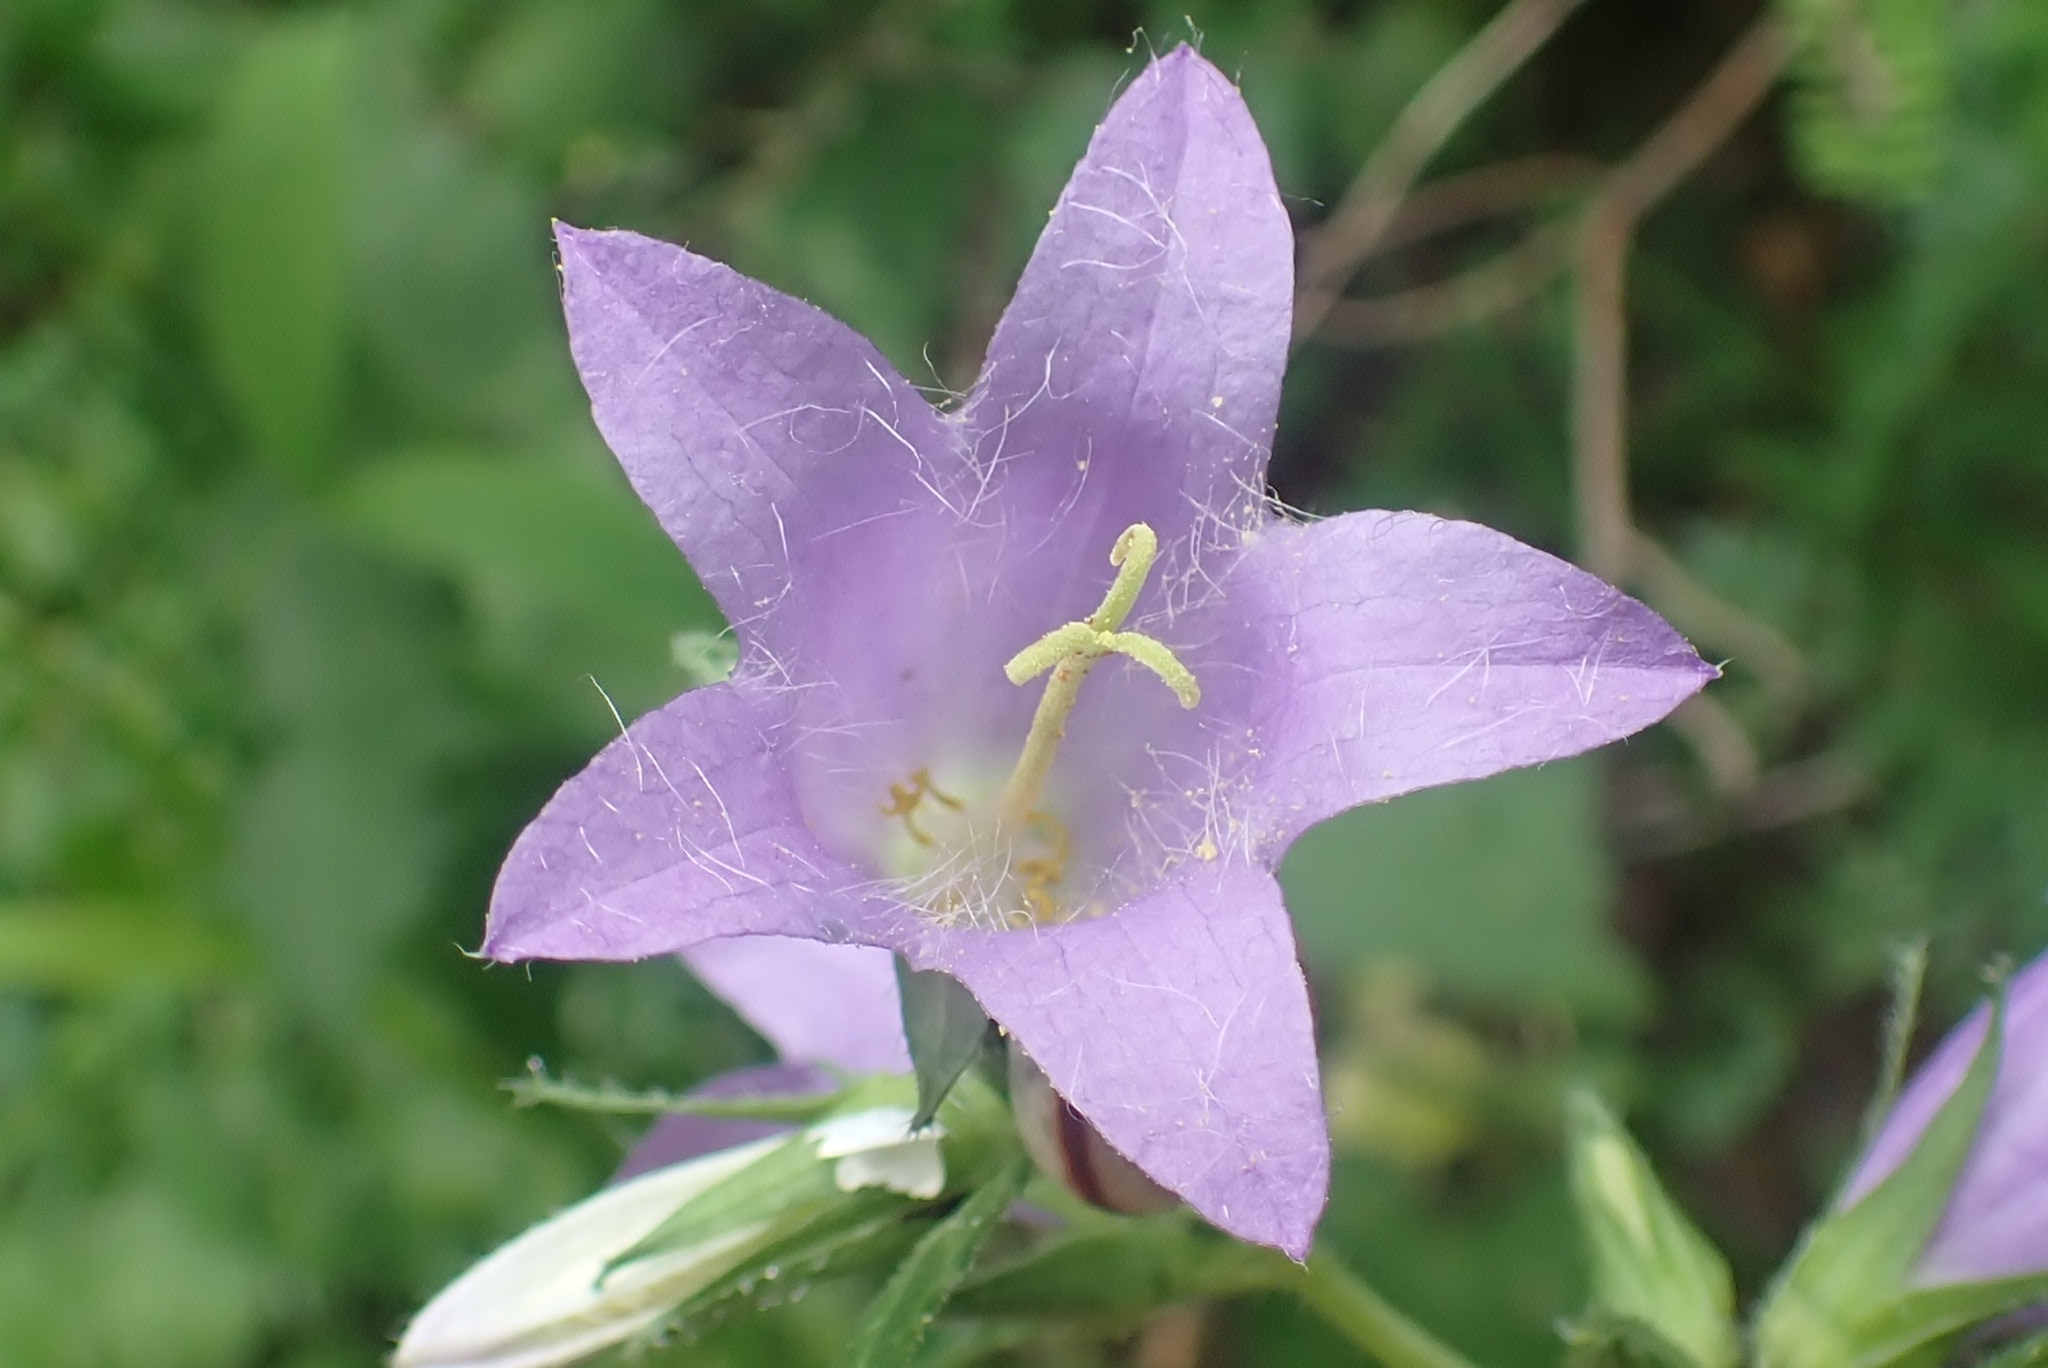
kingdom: Plantae
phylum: Tracheophyta
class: Magnoliopsida
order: Asterales
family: Campanulaceae
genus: Campanula
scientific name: Campanula trachelium
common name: Nettle-leaved bellflower
